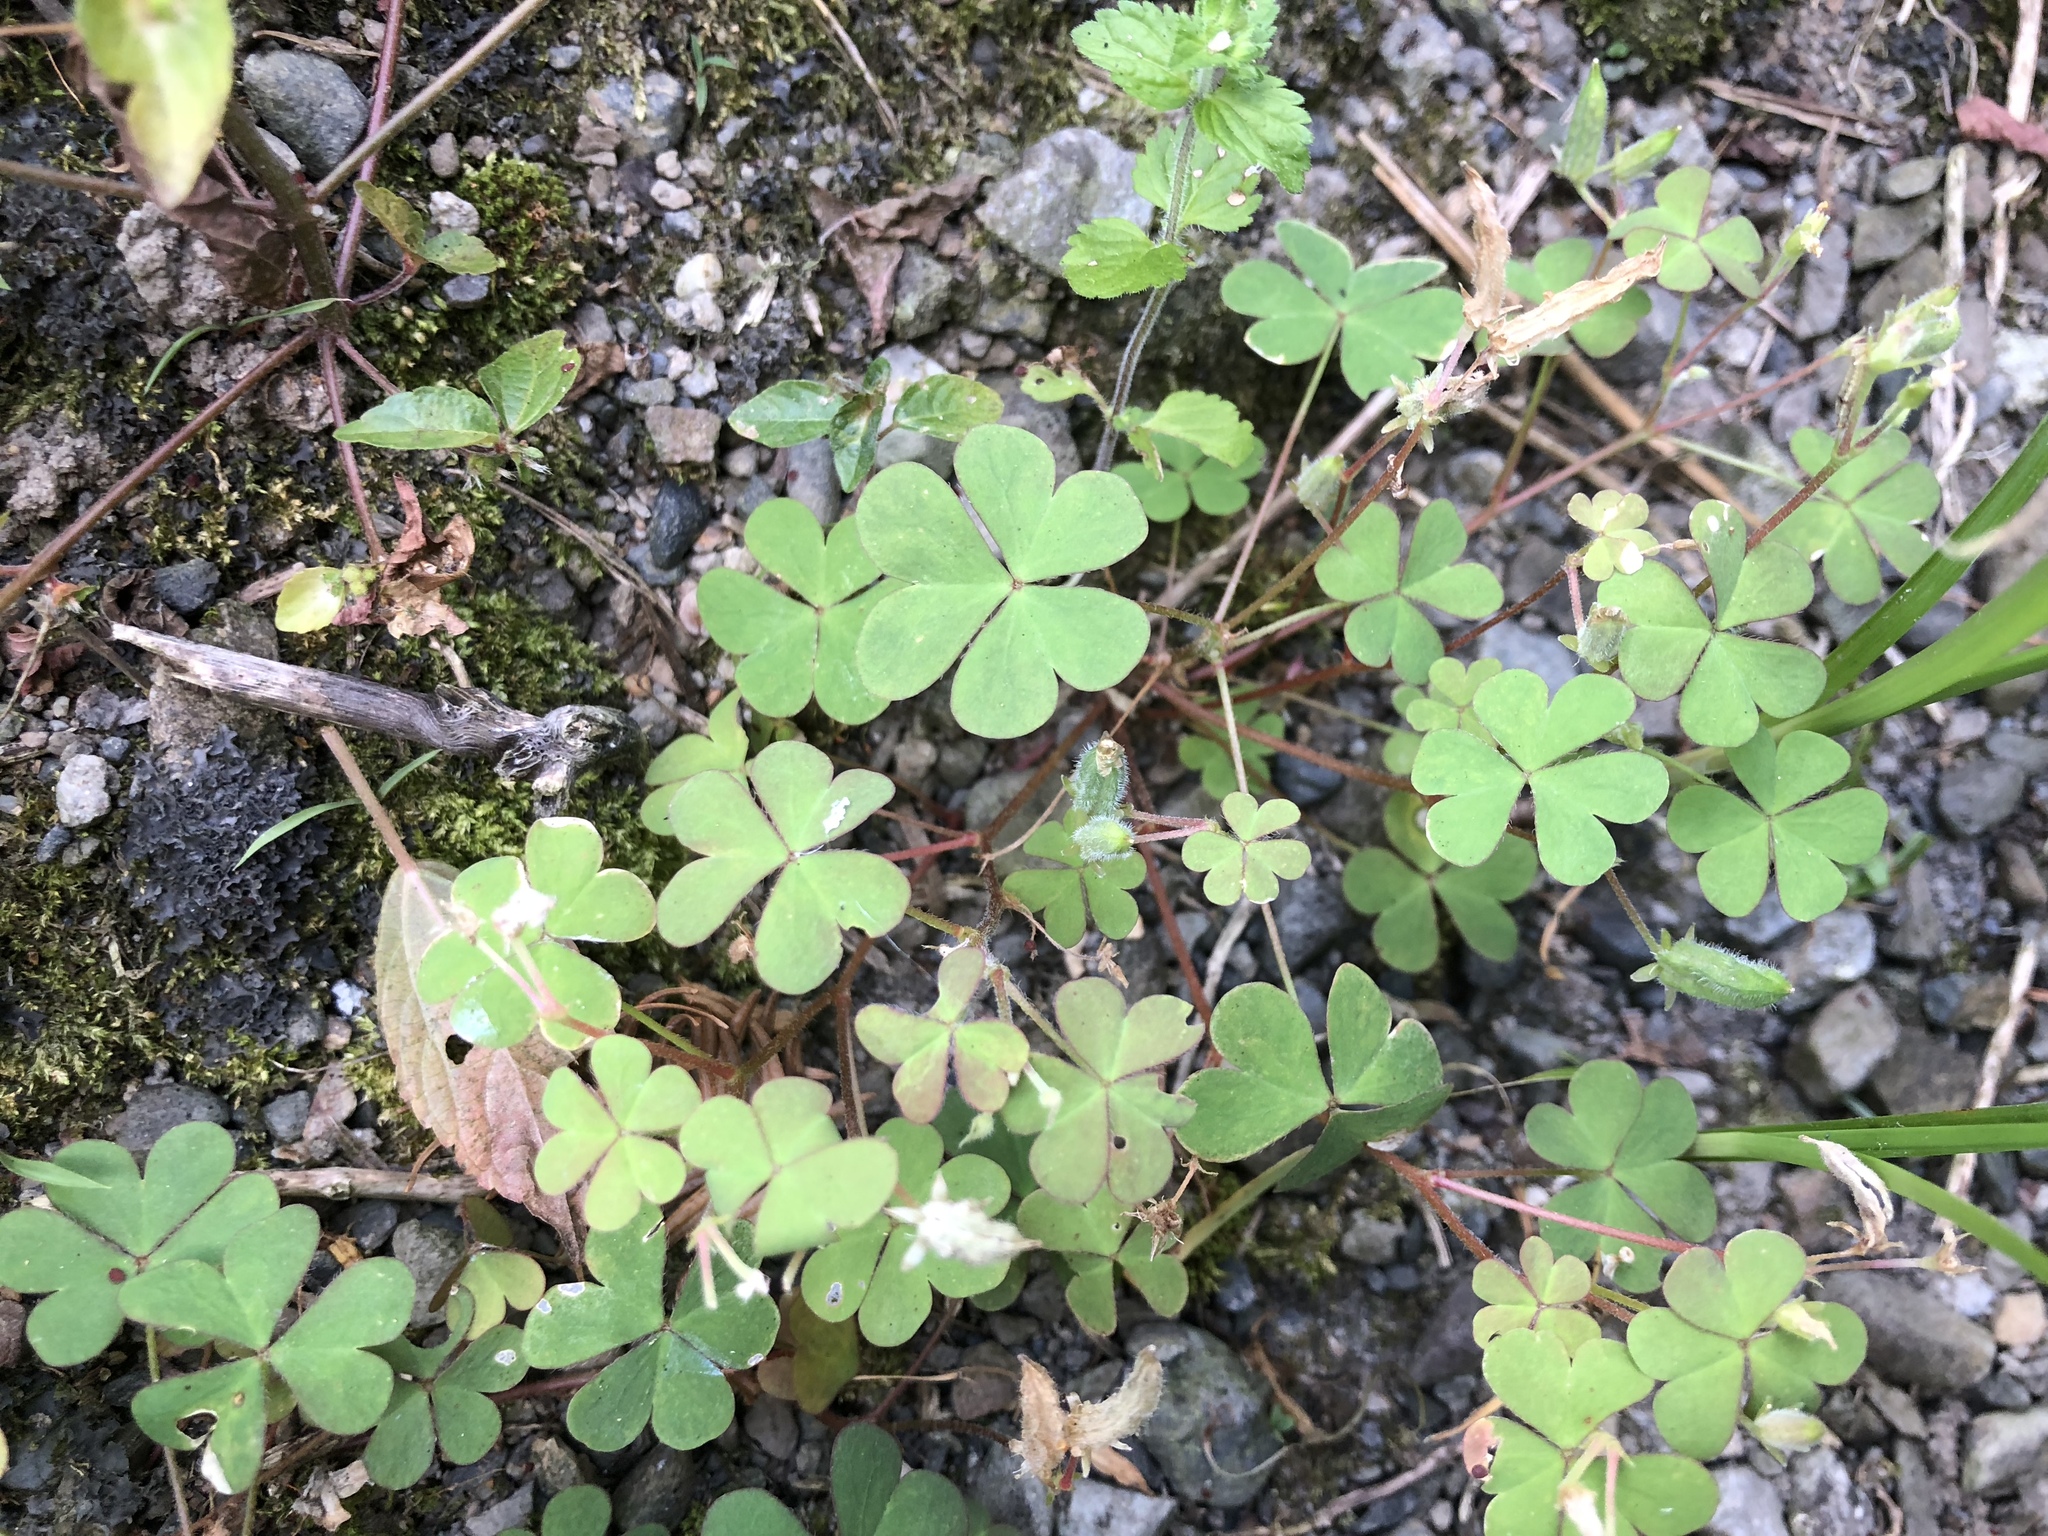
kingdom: Plantae
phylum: Tracheophyta
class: Magnoliopsida
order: Oxalidales
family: Oxalidaceae
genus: Oxalis
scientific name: Oxalis corniculata
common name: Procumbent yellow-sorrel
